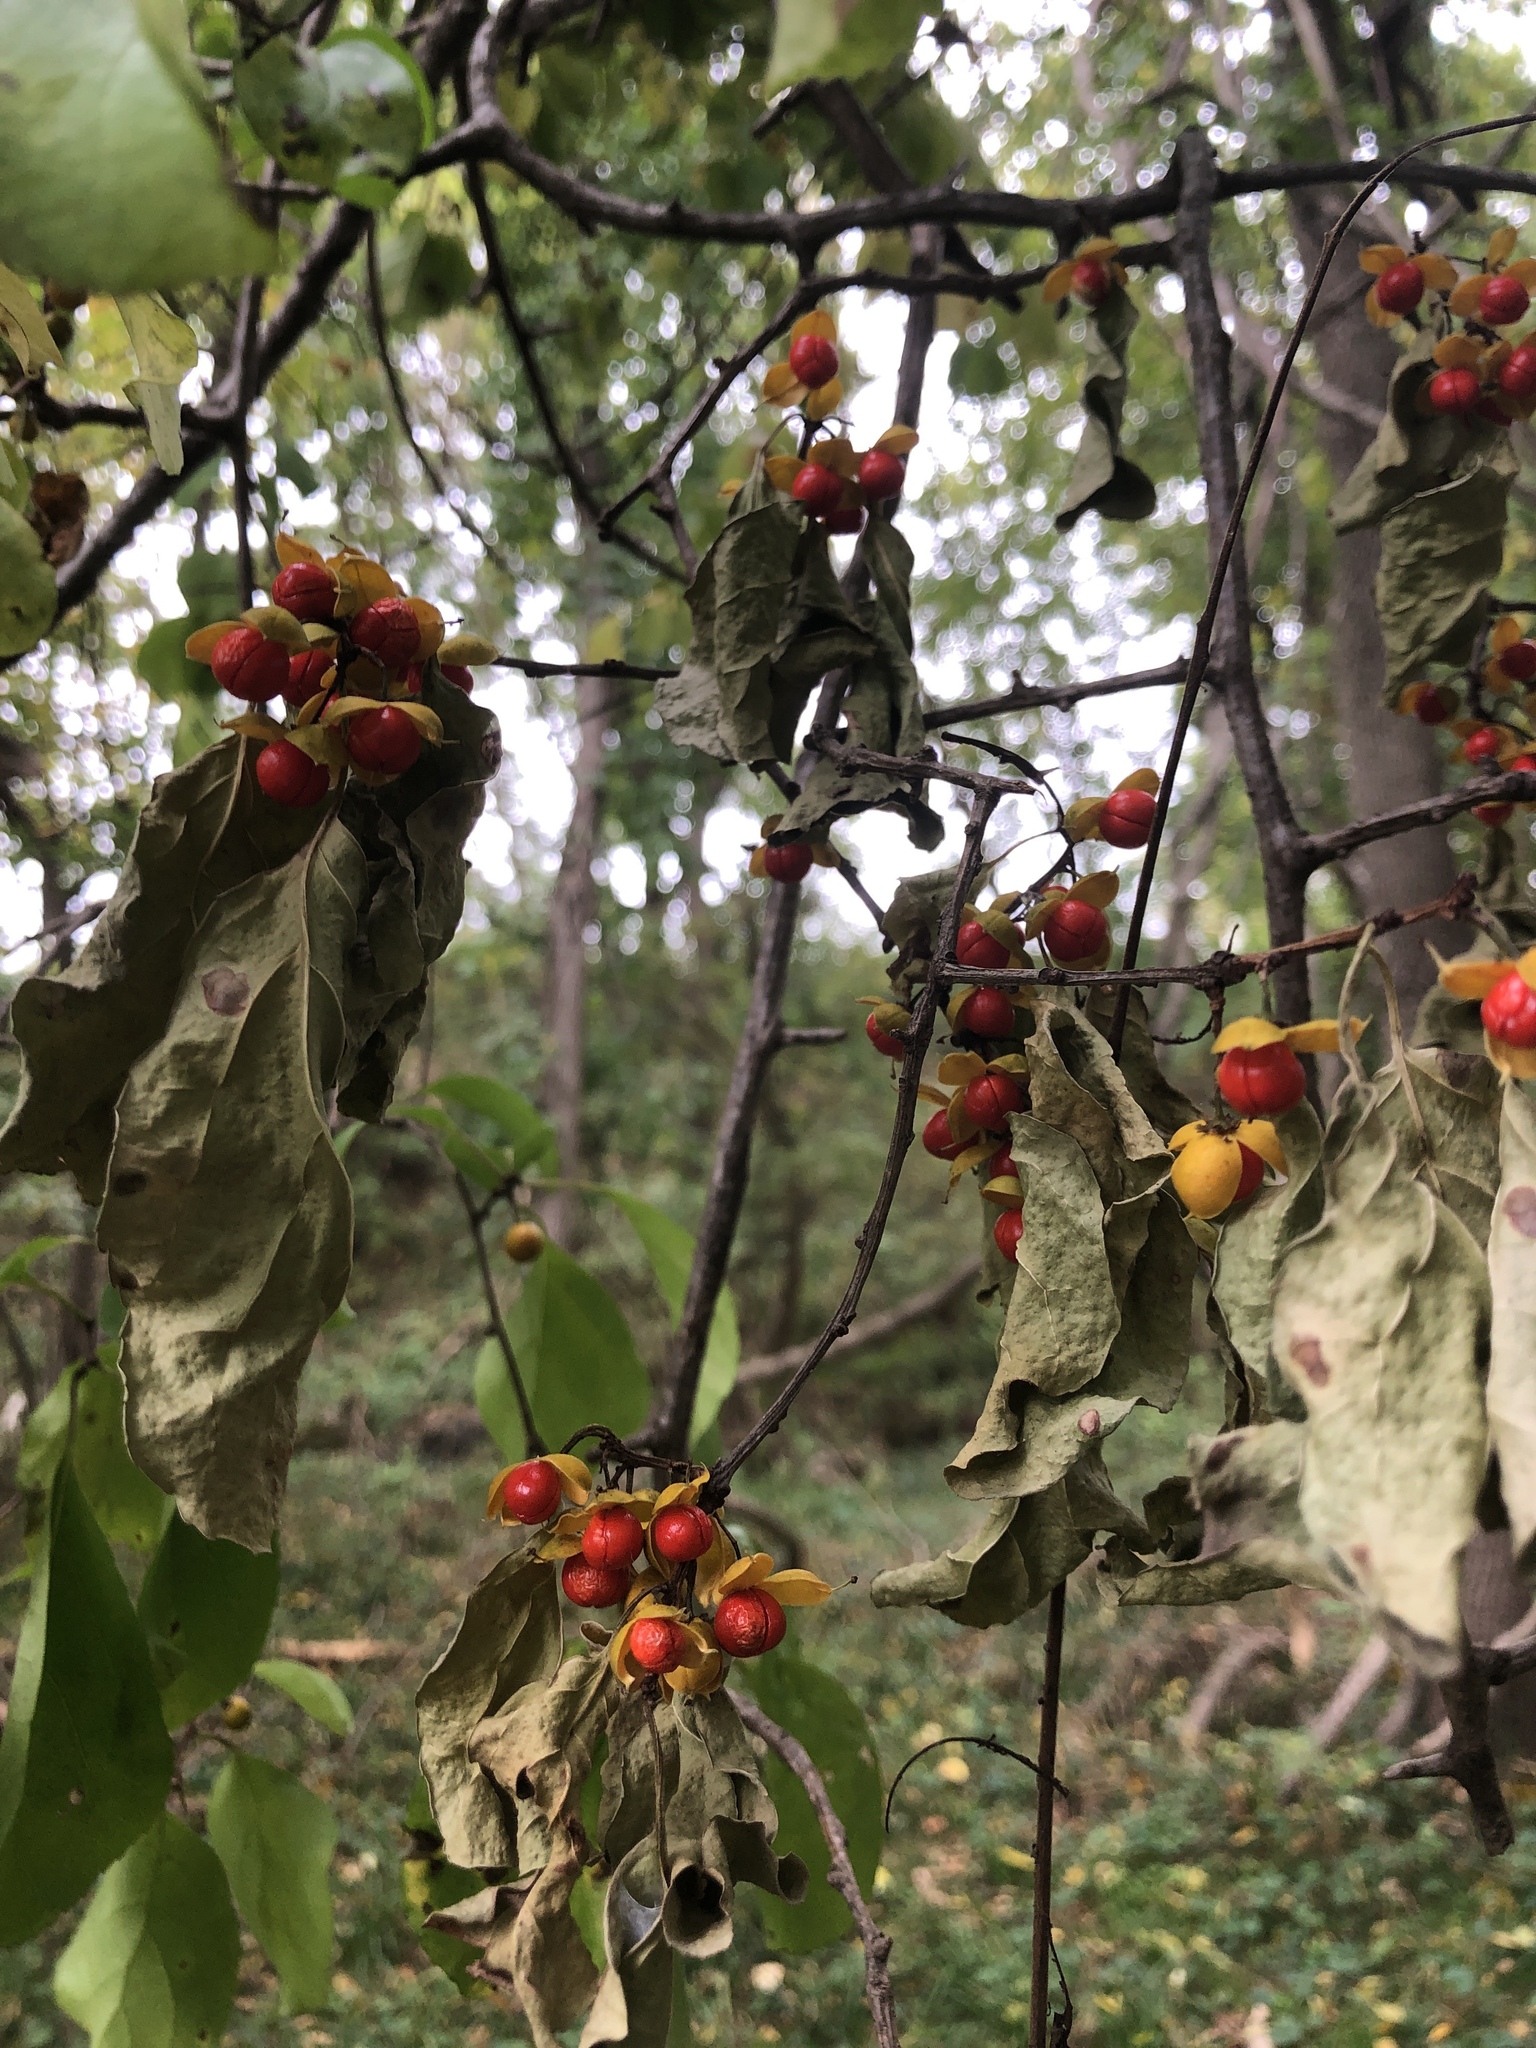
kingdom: Plantae
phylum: Tracheophyta
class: Magnoliopsida
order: Celastrales
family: Celastraceae
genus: Celastrus
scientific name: Celastrus orbiculatus
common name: Oriental bittersweet
